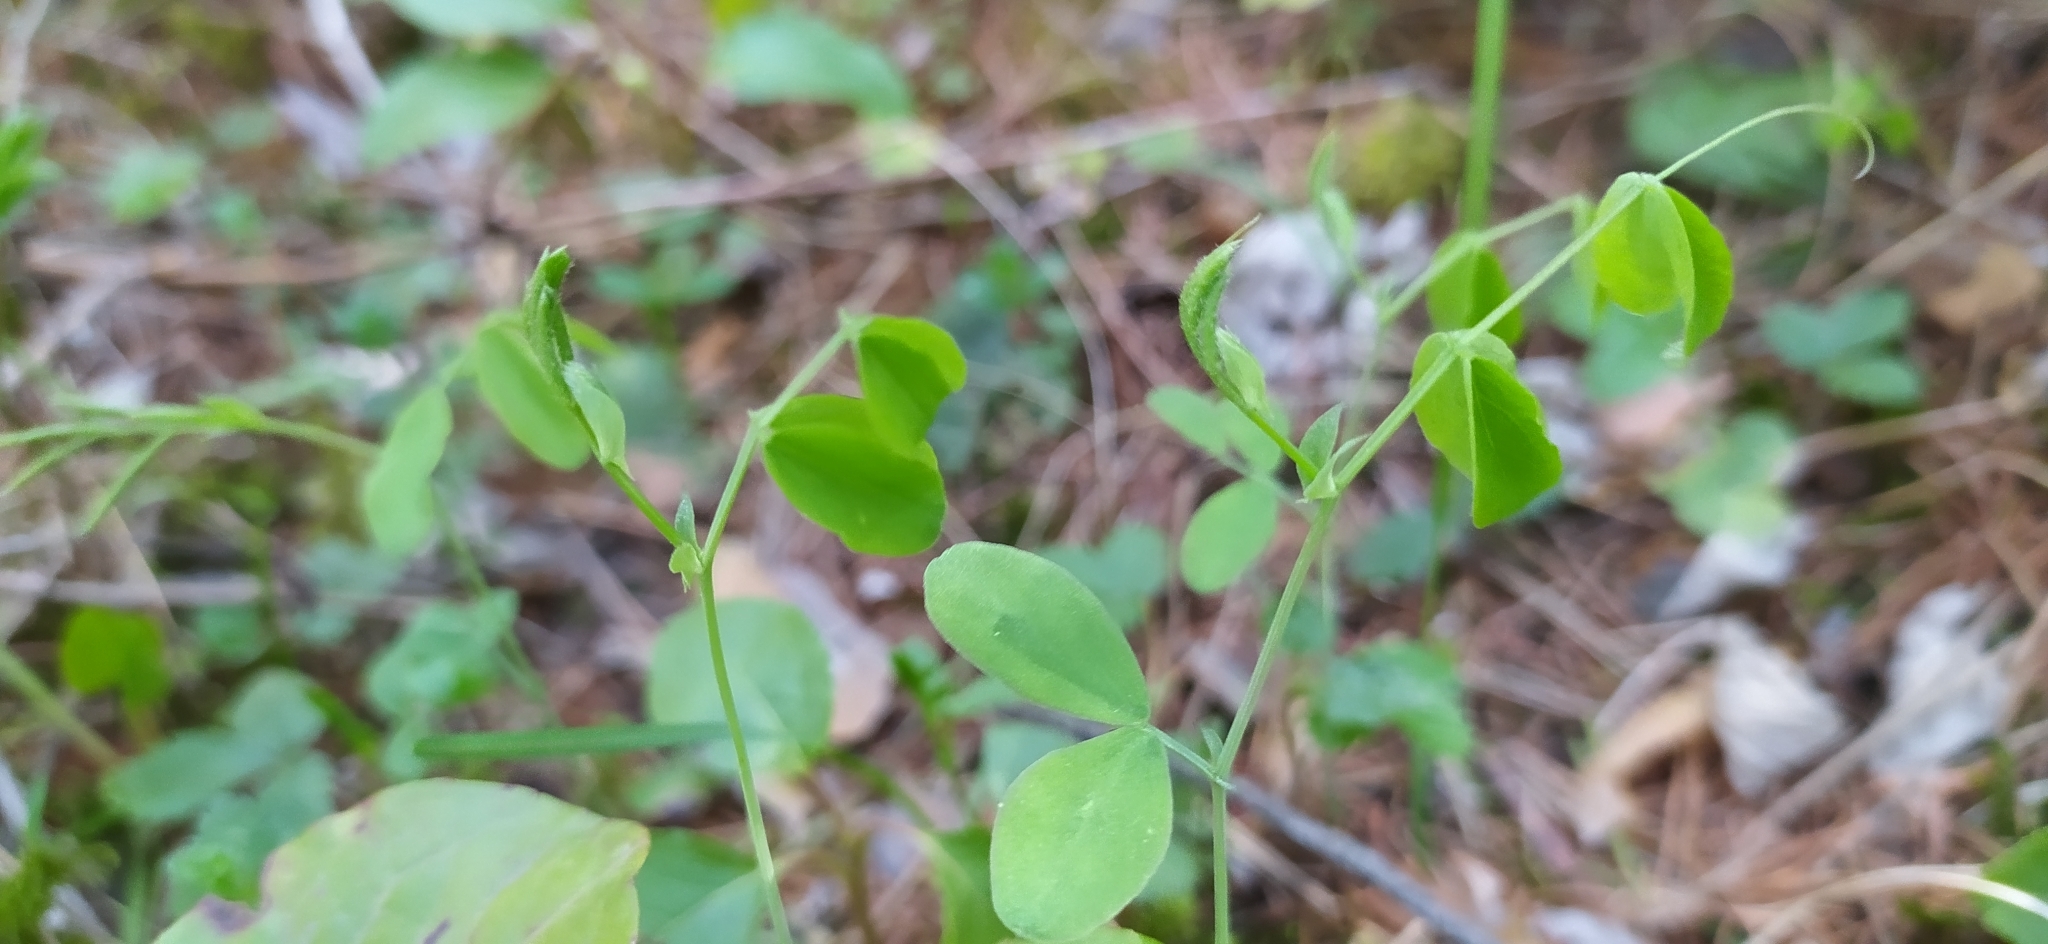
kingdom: Plantae
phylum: Tracheophyta
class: Magnoliopsida
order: Fabales
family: Fabaceae
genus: Lathyrus
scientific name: Lathyrus humilis
